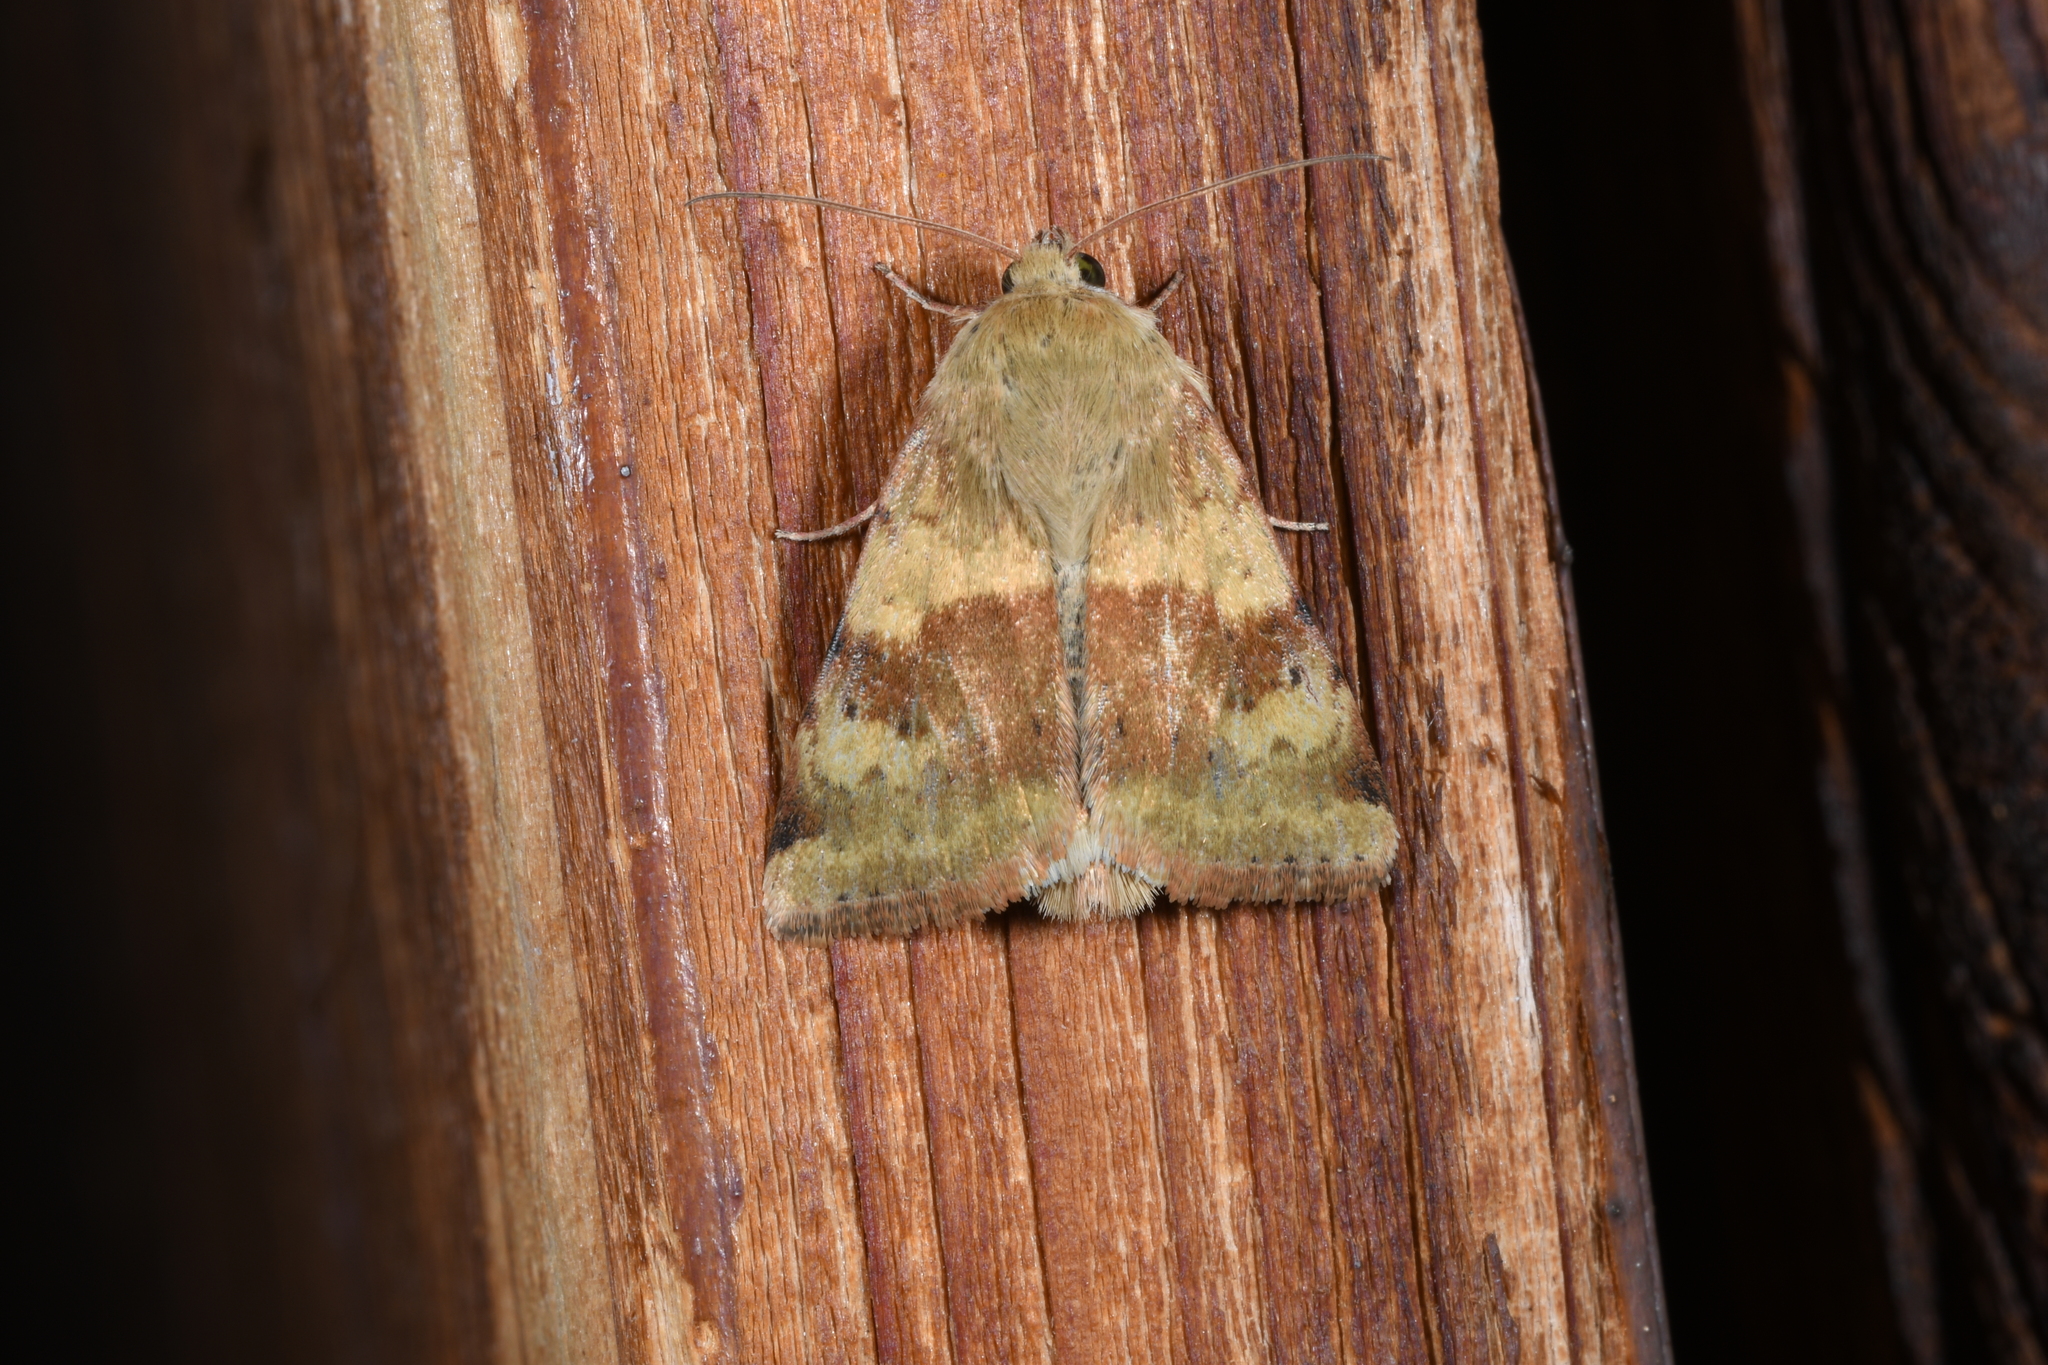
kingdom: Animalia
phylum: Arthropoda
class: Insecta
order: Lepidoptera
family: Noctuidae
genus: Heliothis
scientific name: Heliothis viriplaca
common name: Marbled clover
